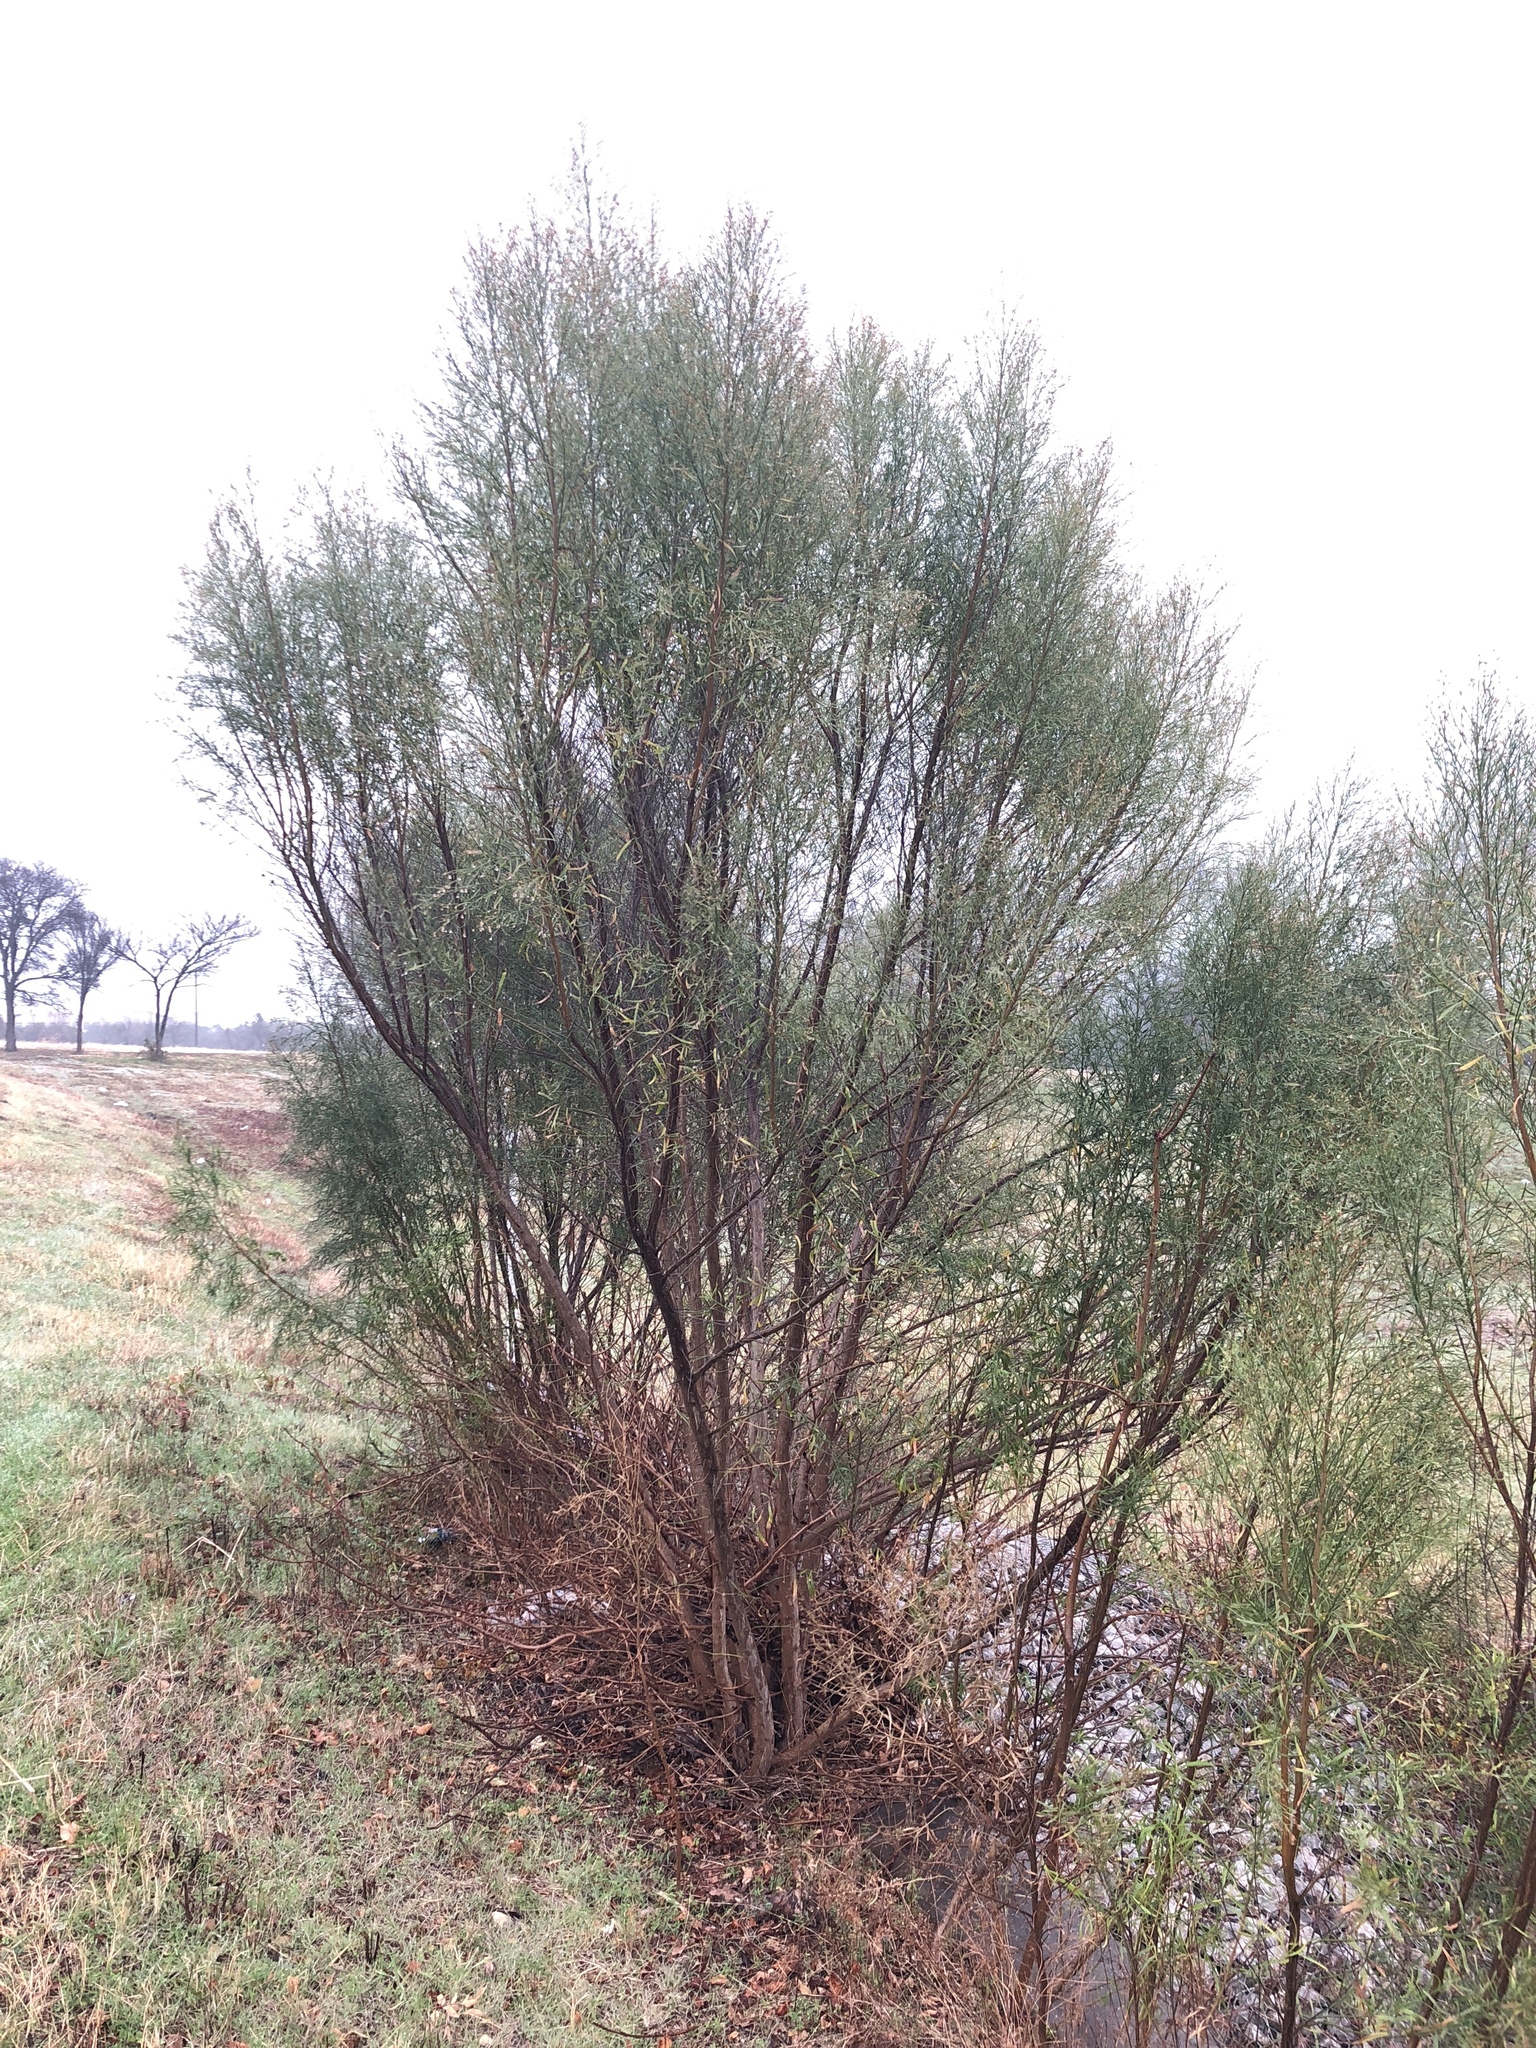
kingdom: Plantae
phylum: Tracheophyta
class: Magnoliopsida
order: Asterales
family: Asteraceae
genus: Baccharis
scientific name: Baccharis neglecta
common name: Roosevelt-weed
